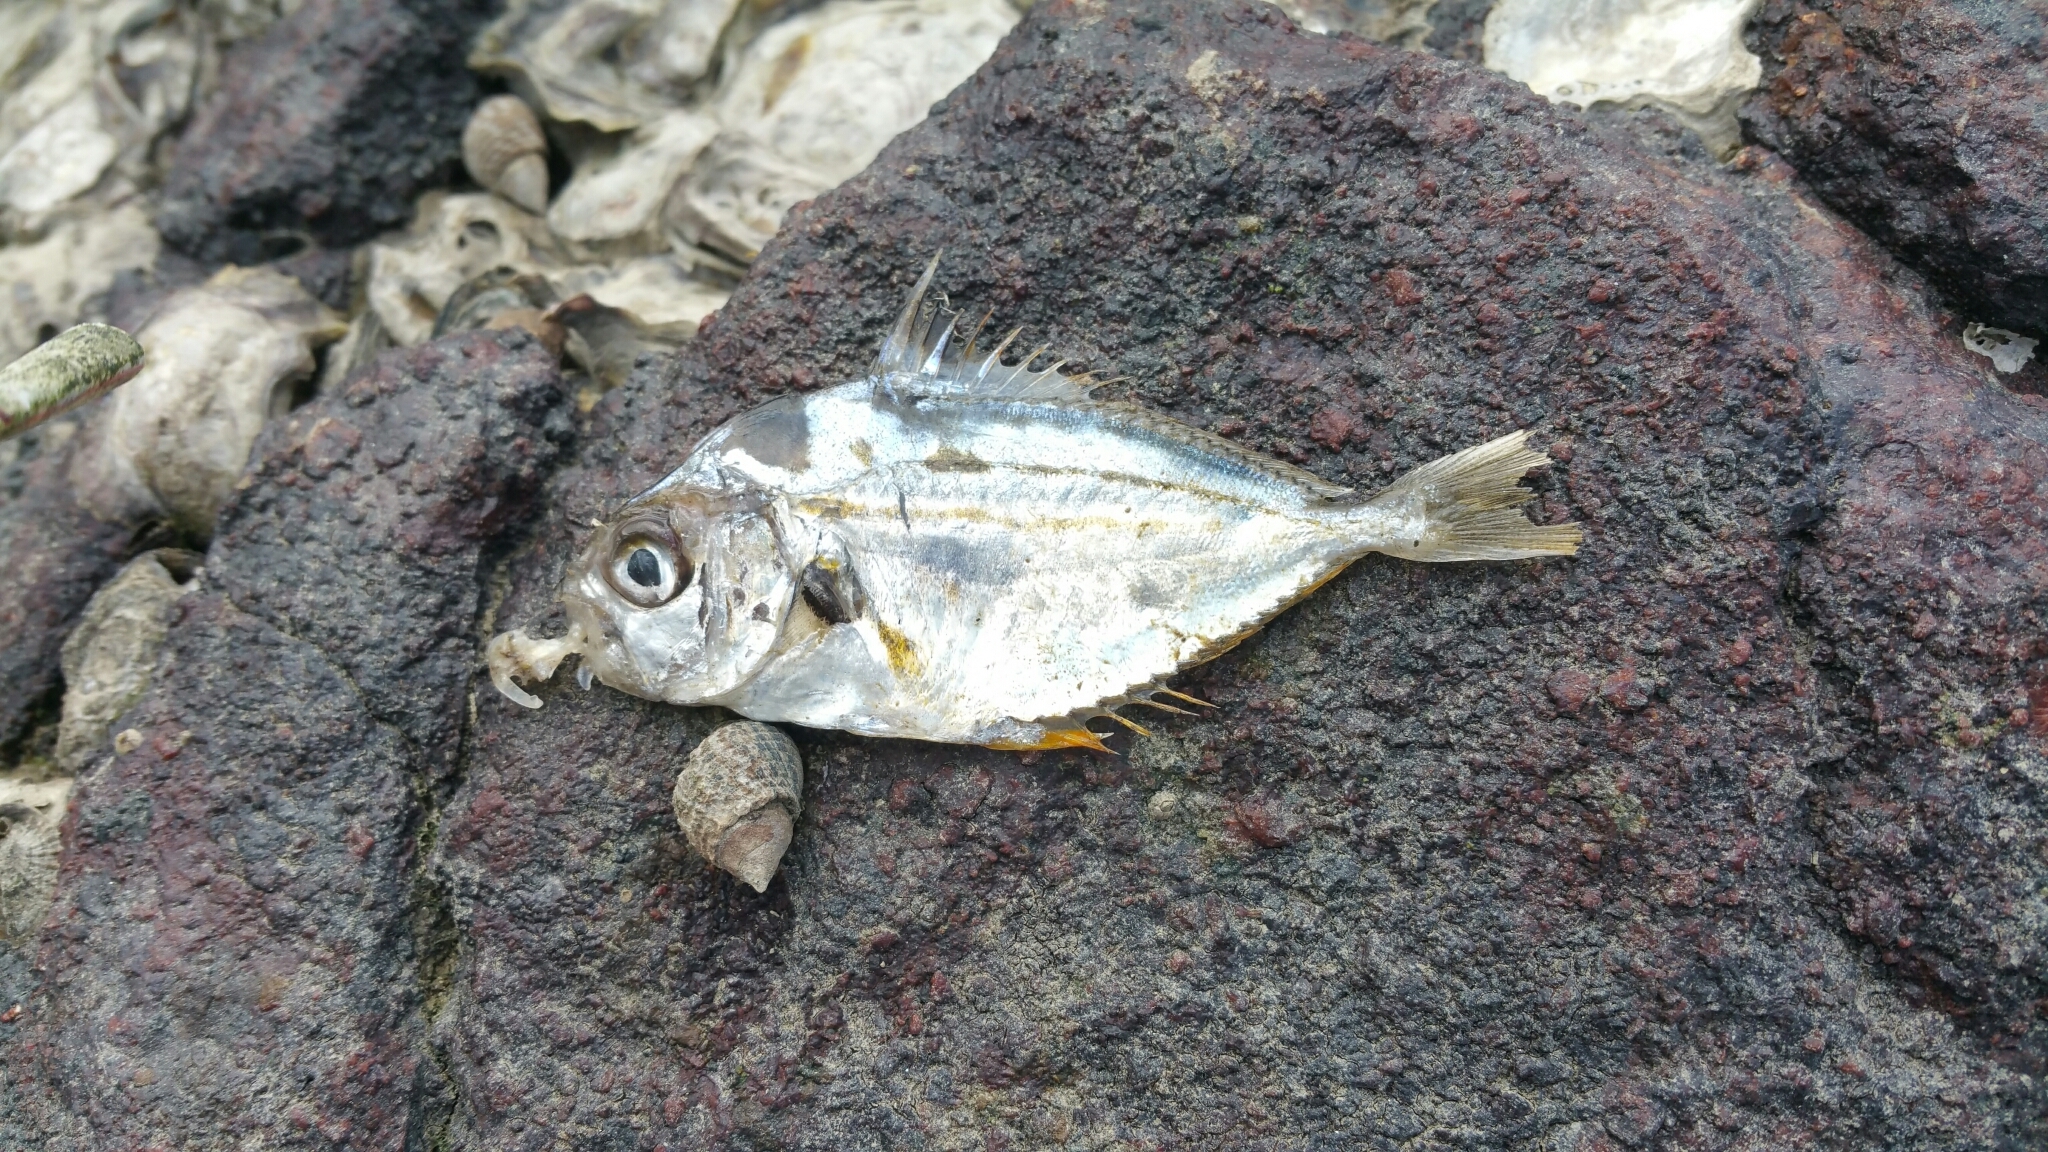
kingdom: Animalia
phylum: Chordata
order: Perciformes
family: Leiognathidae
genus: Nuchequula
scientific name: Nuchequula nuchalis
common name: Spotnape ponyfish
